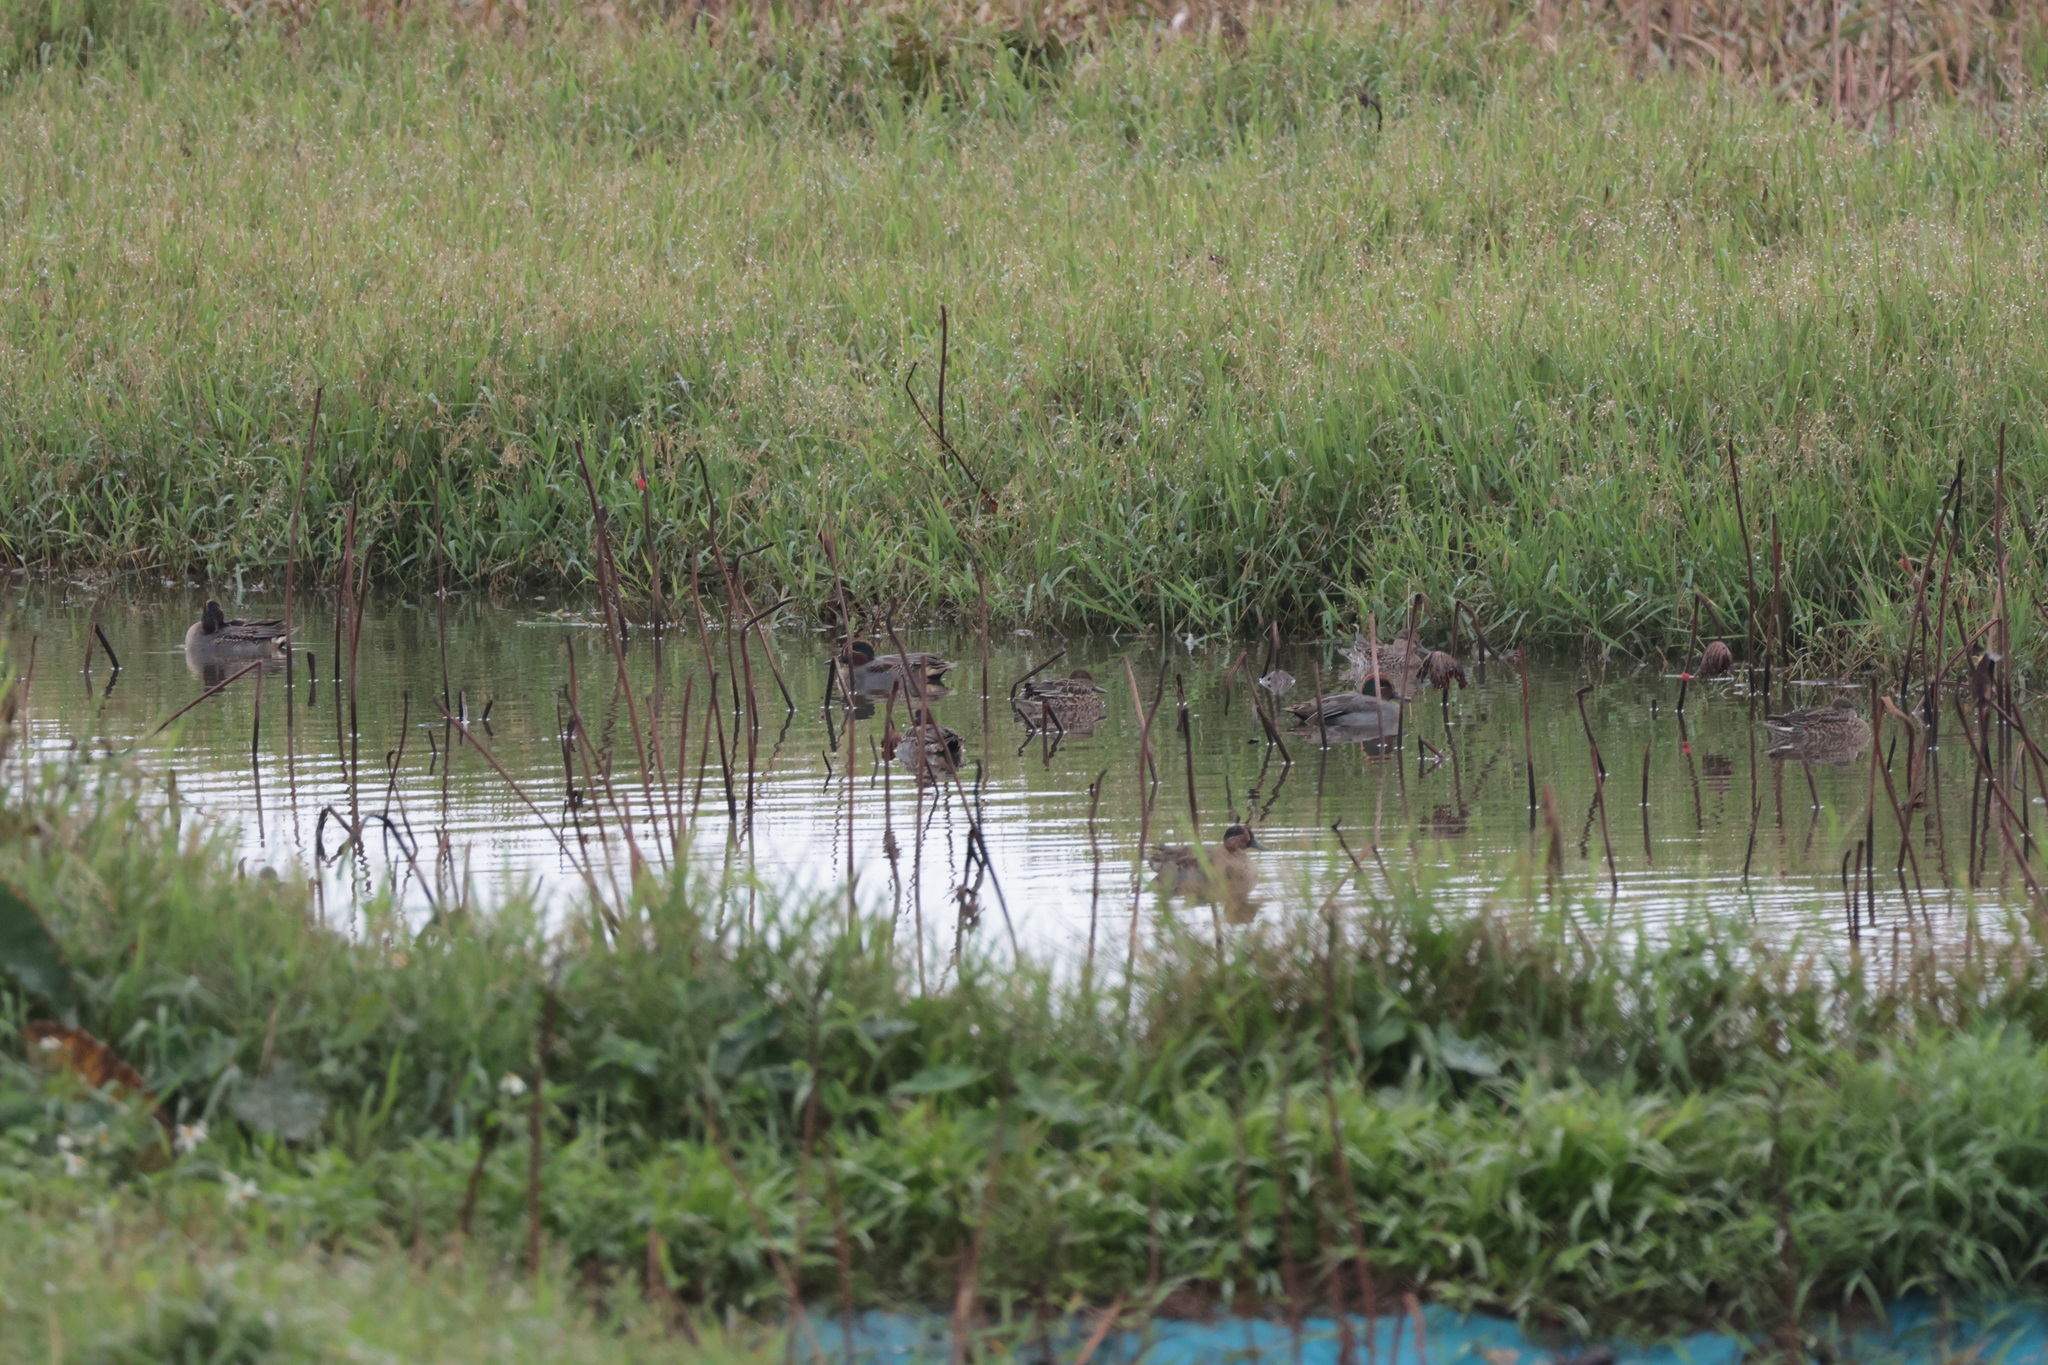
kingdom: Animalia
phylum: Chordata
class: Aves
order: Anseriformes
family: Anatidae
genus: Anas
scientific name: Anas crecca
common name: Eurasian teal
